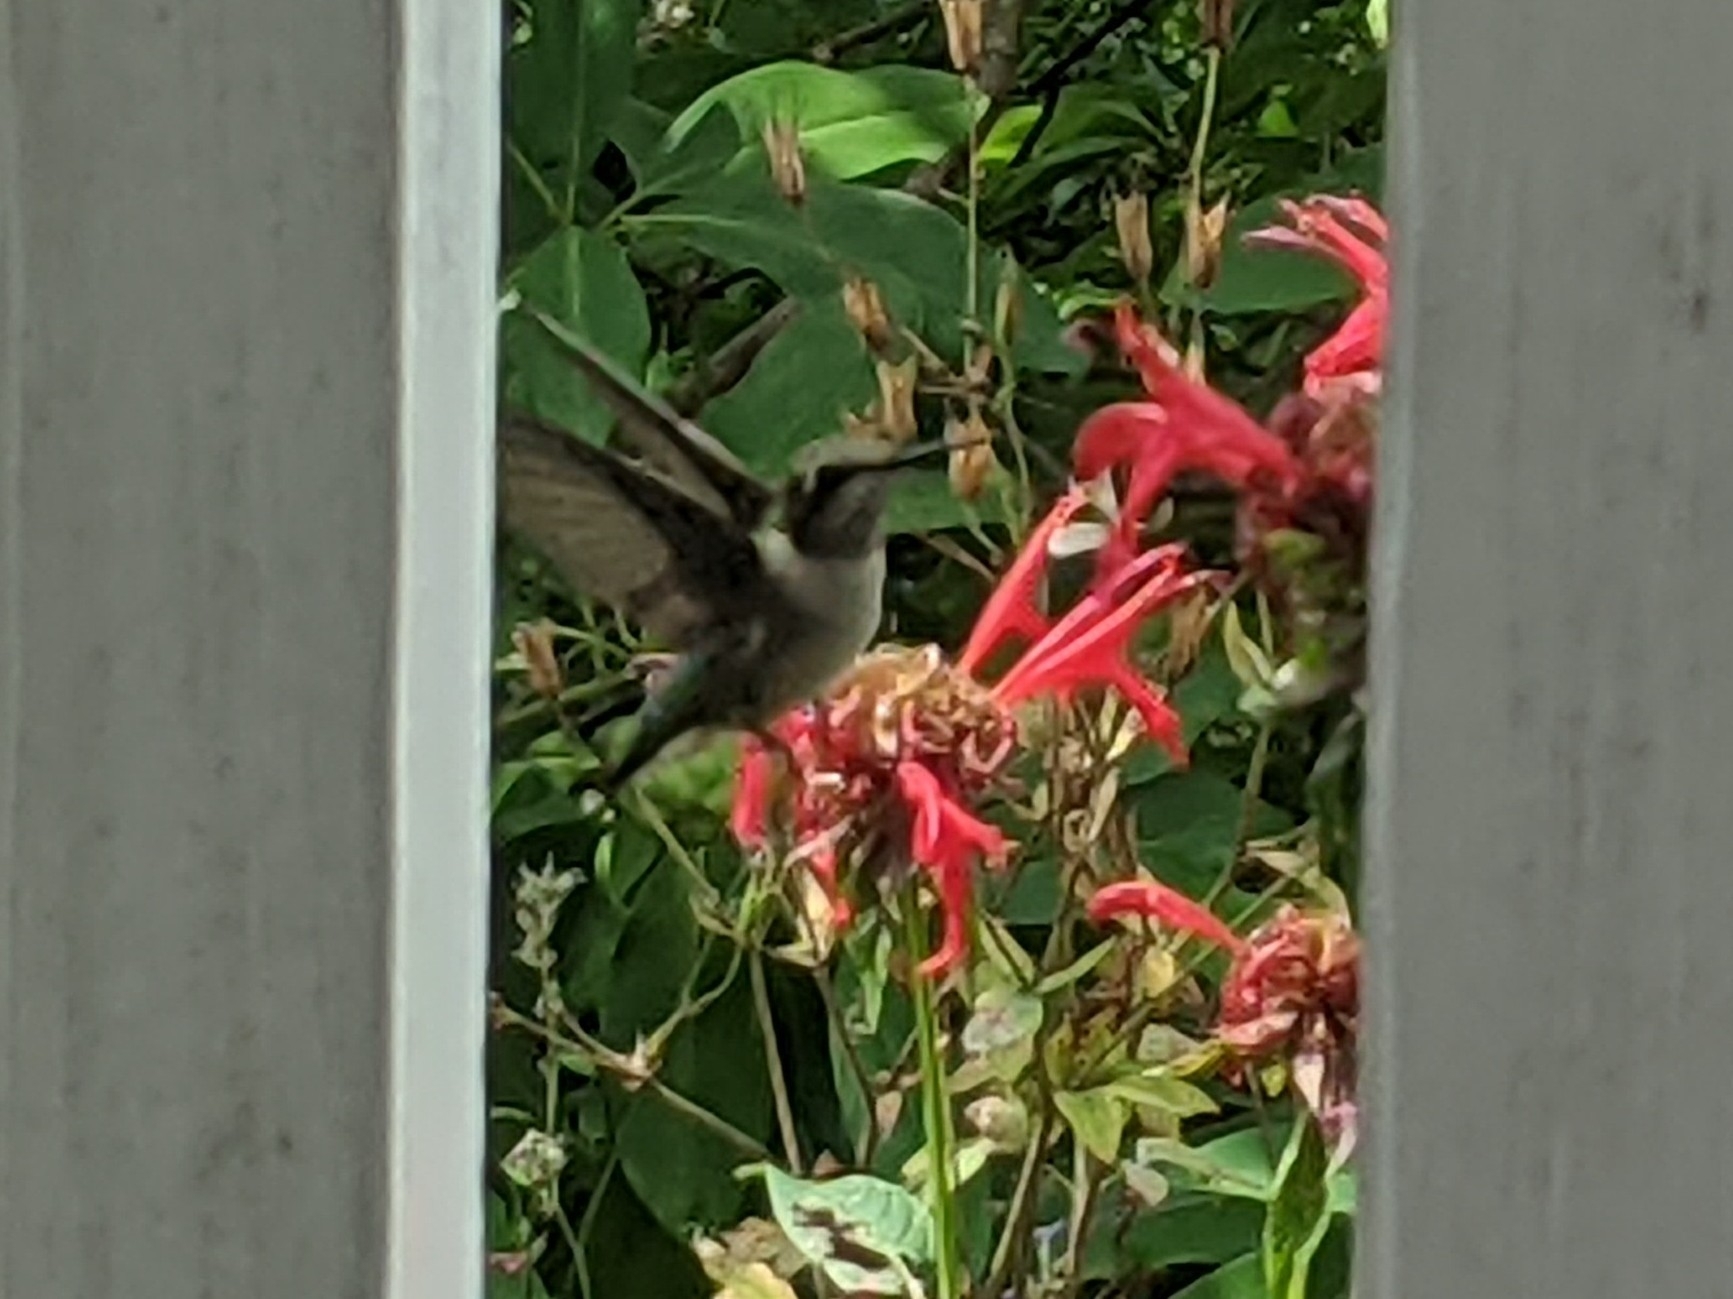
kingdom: Animalia
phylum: Chordata
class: Aves
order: Apodiformes
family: Trochilidae
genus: Archilochus
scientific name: Archilochus colubris
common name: Ruby-throated hummingbird
